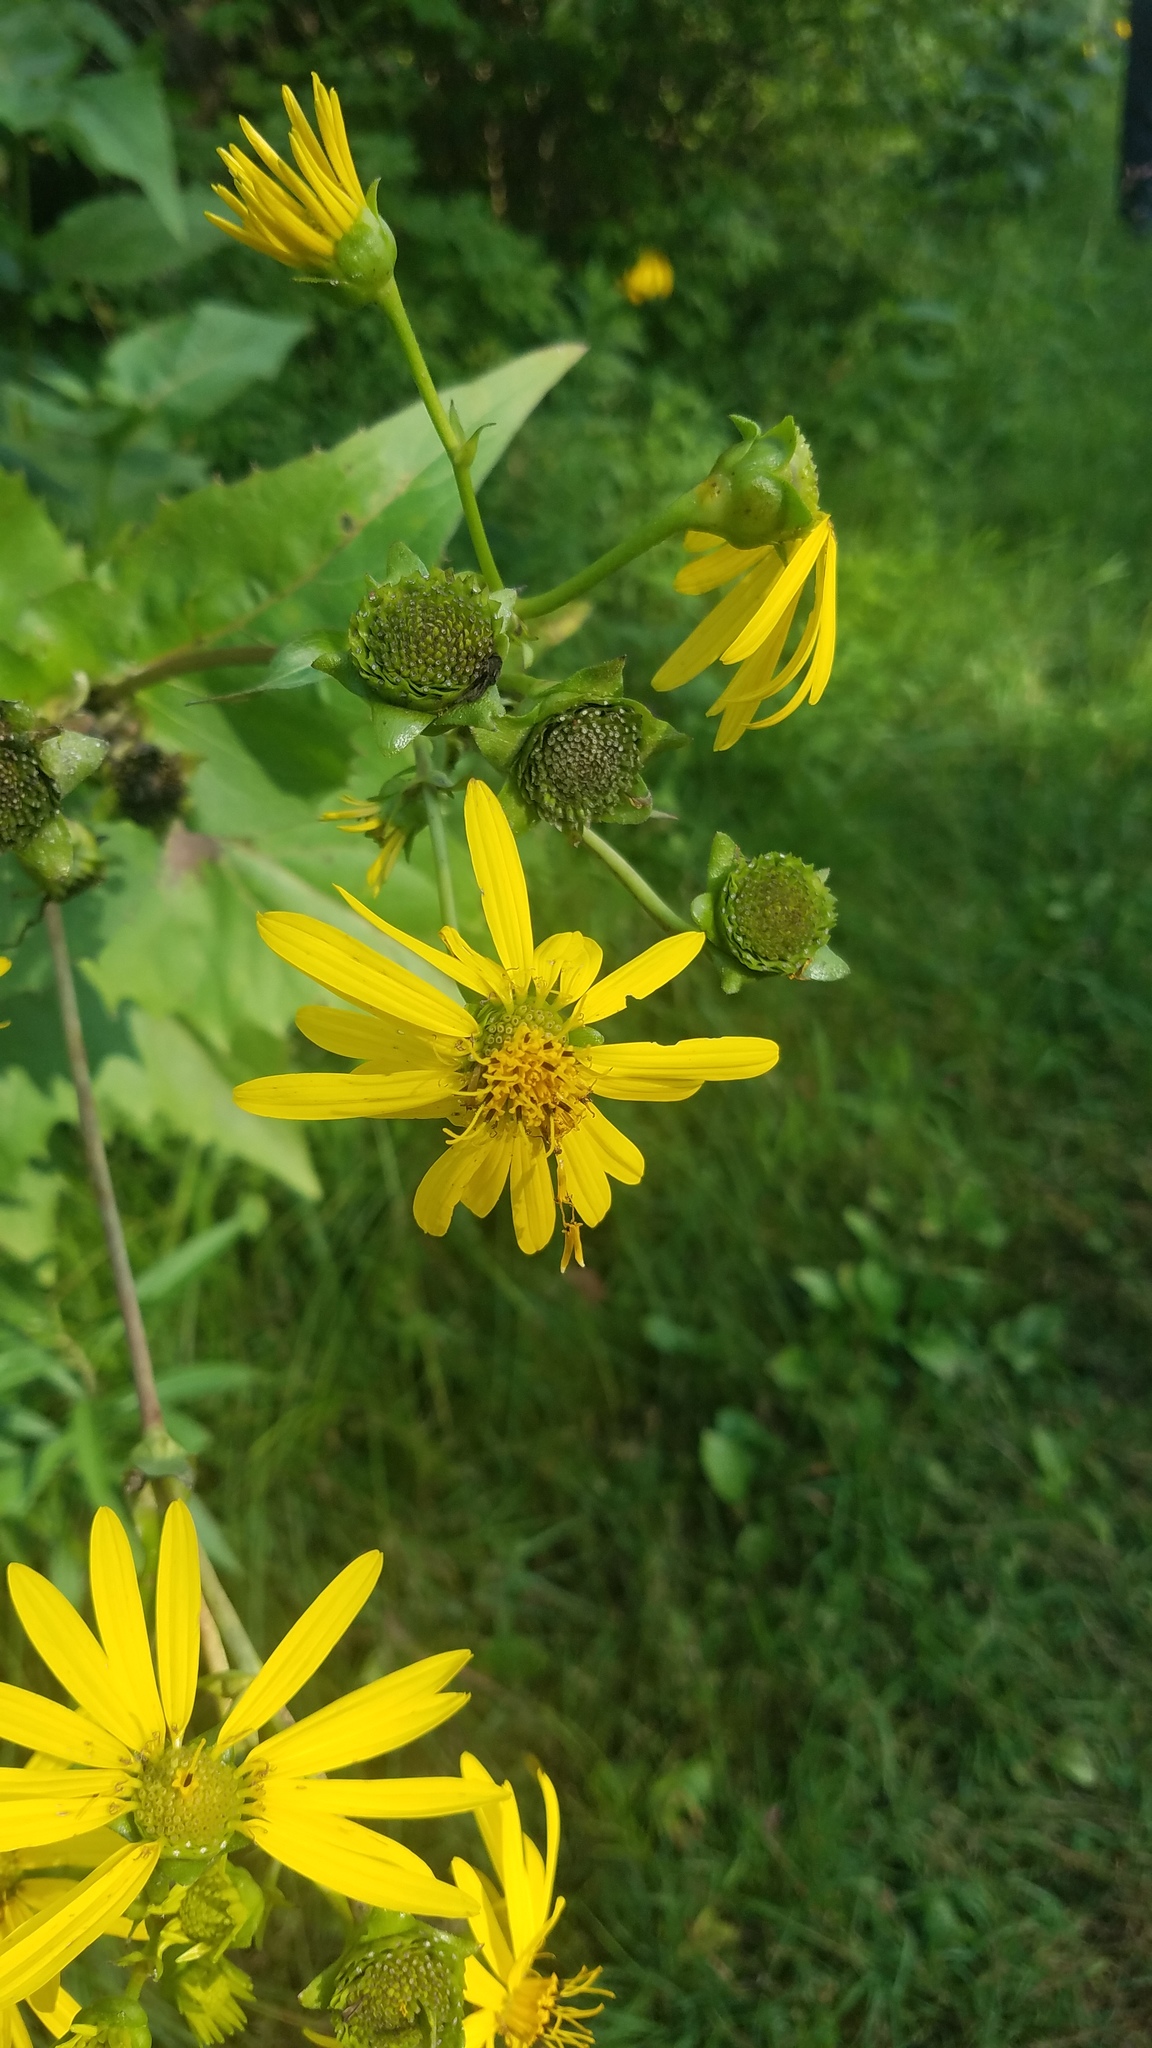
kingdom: Plantae
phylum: Tracheophyta
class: Magnoliopsida
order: Asterales
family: Asteraceae
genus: Silphium
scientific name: Silphium perfoliatum
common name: Cup-plant
